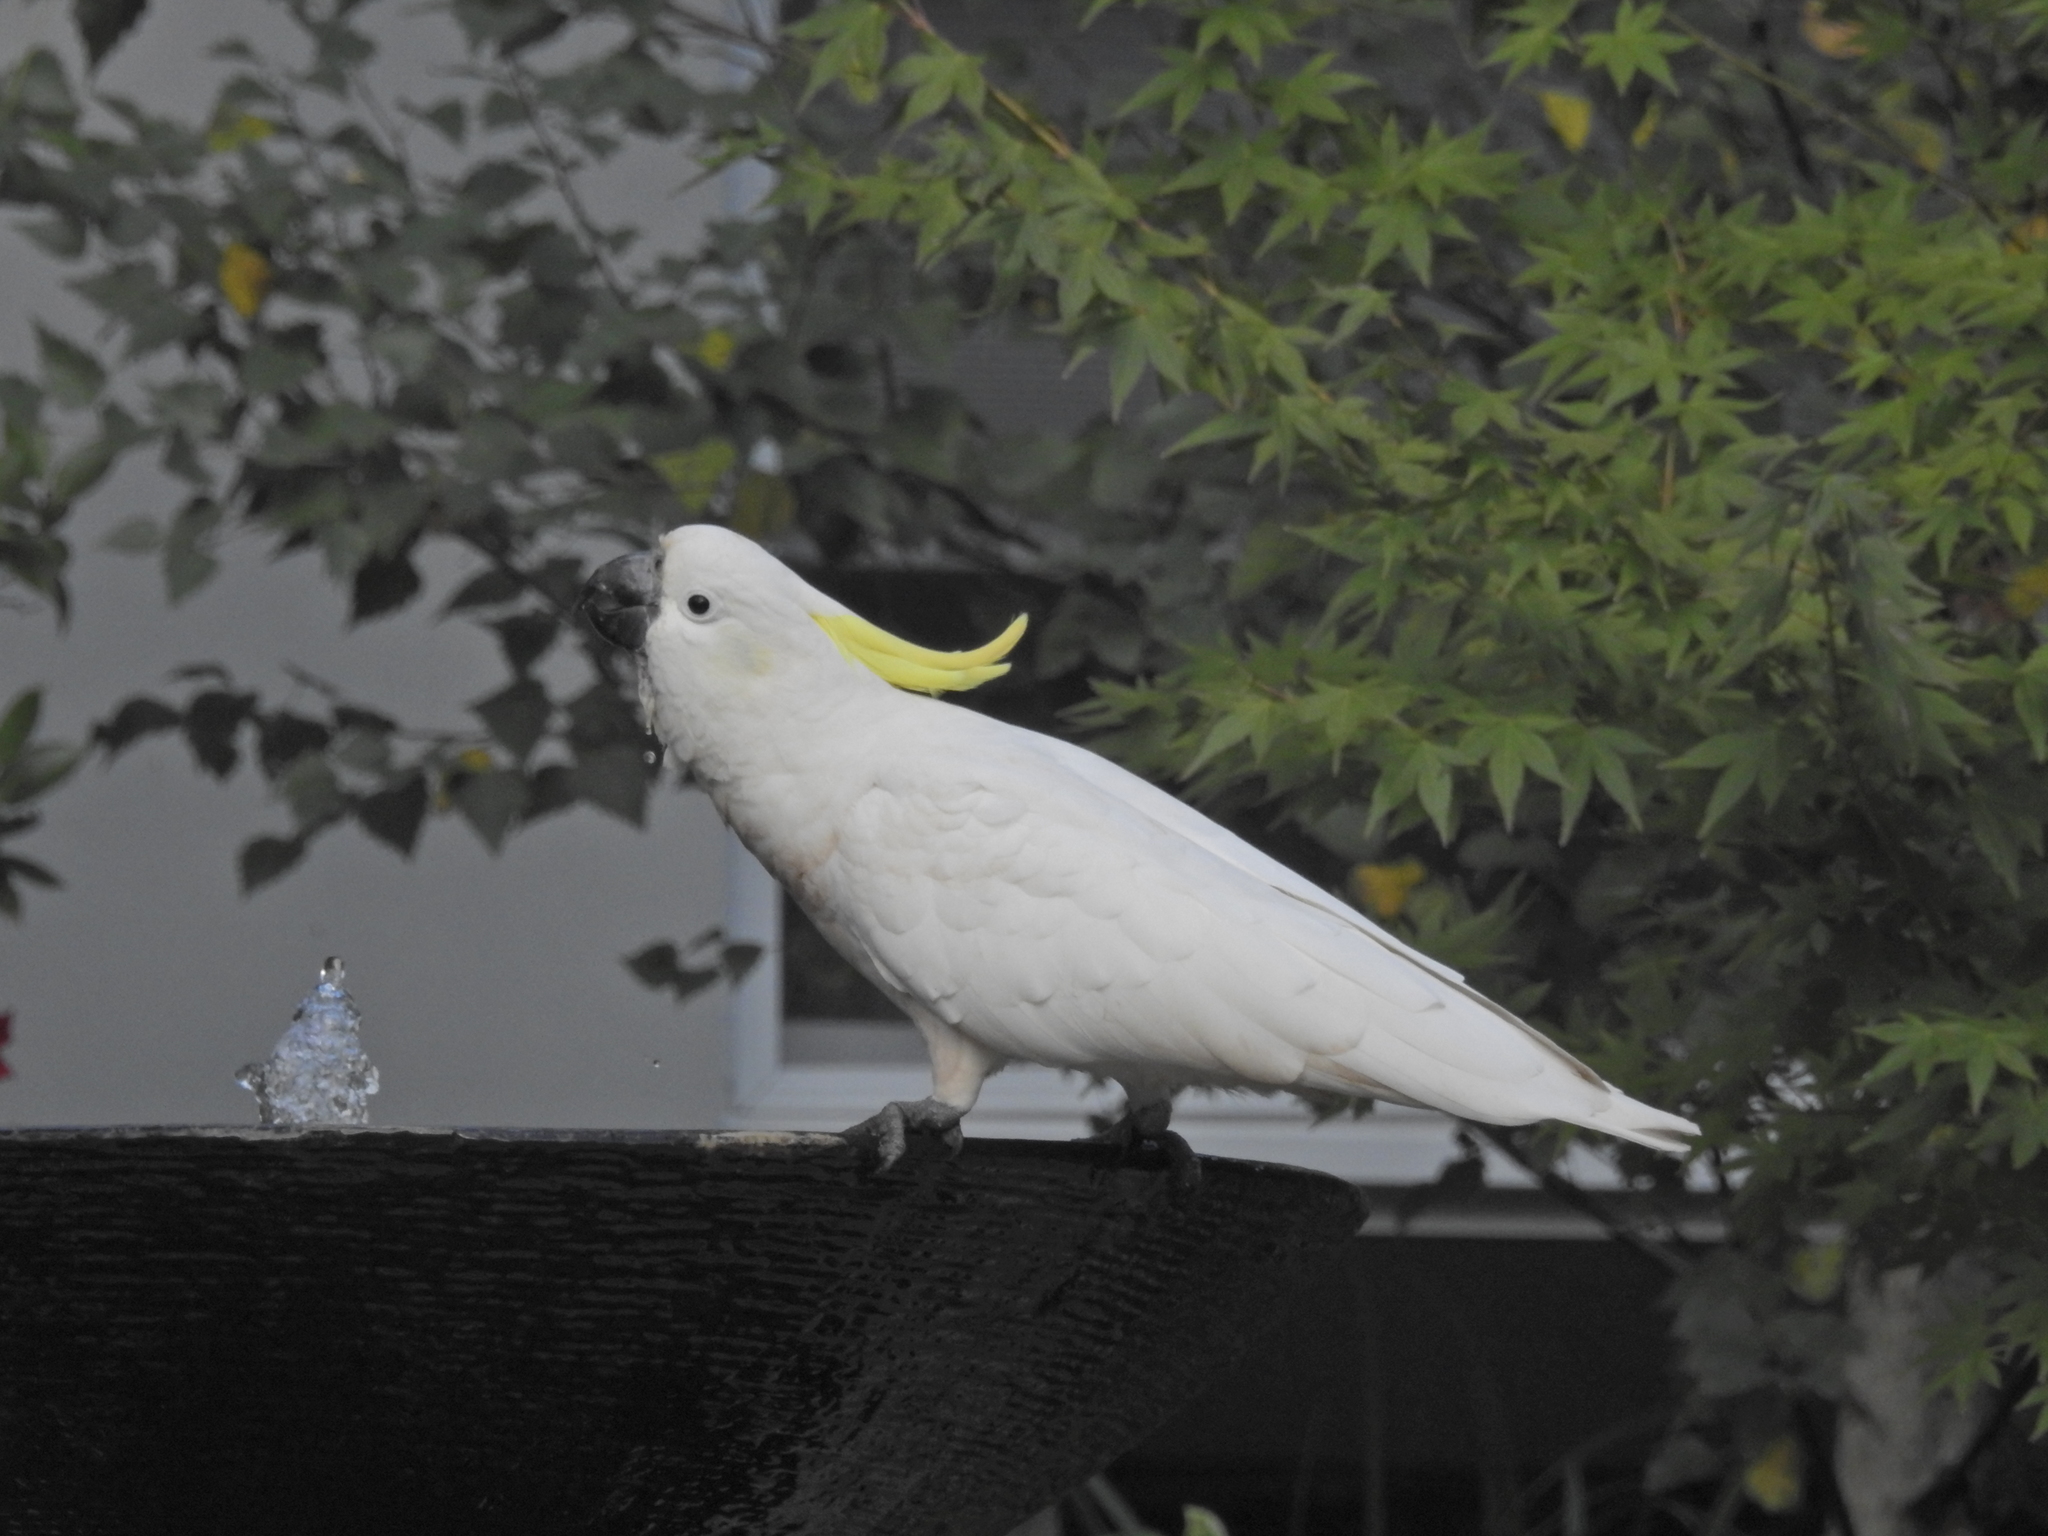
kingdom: Animalia
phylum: Chordata
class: Aves
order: Psittaciformes
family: Psittacidae
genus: Cacatua
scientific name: Cacatua galerita
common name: Sulphur-crested cockatoo
